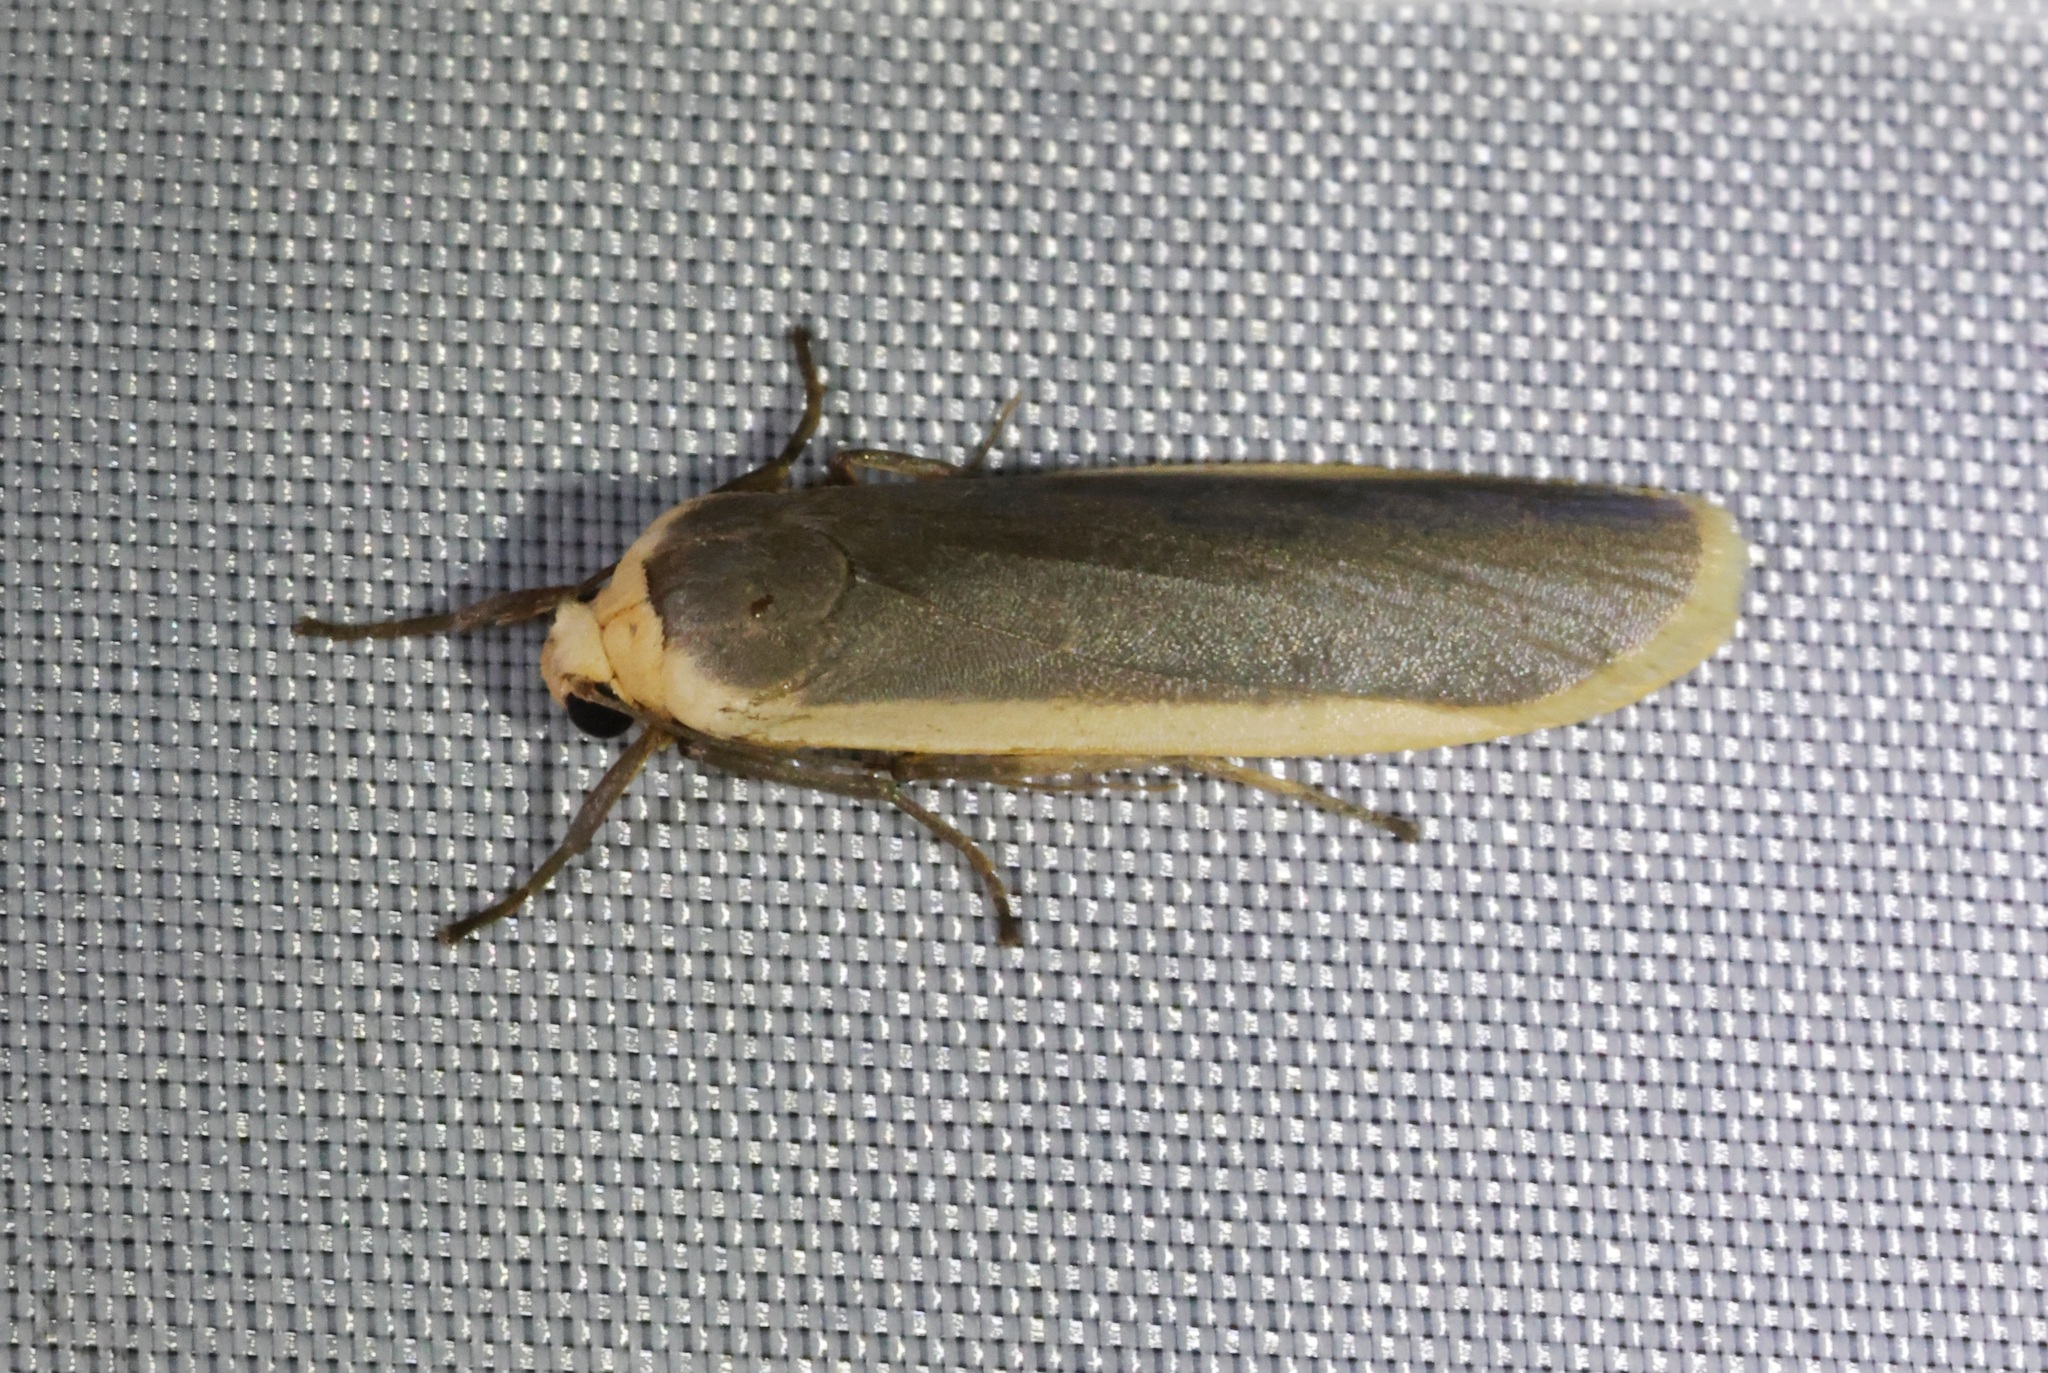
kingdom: Animalia
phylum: Arthropoda
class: Insecta
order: Lepidoptera
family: Erebidae
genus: Brunia
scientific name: Brunia antica
